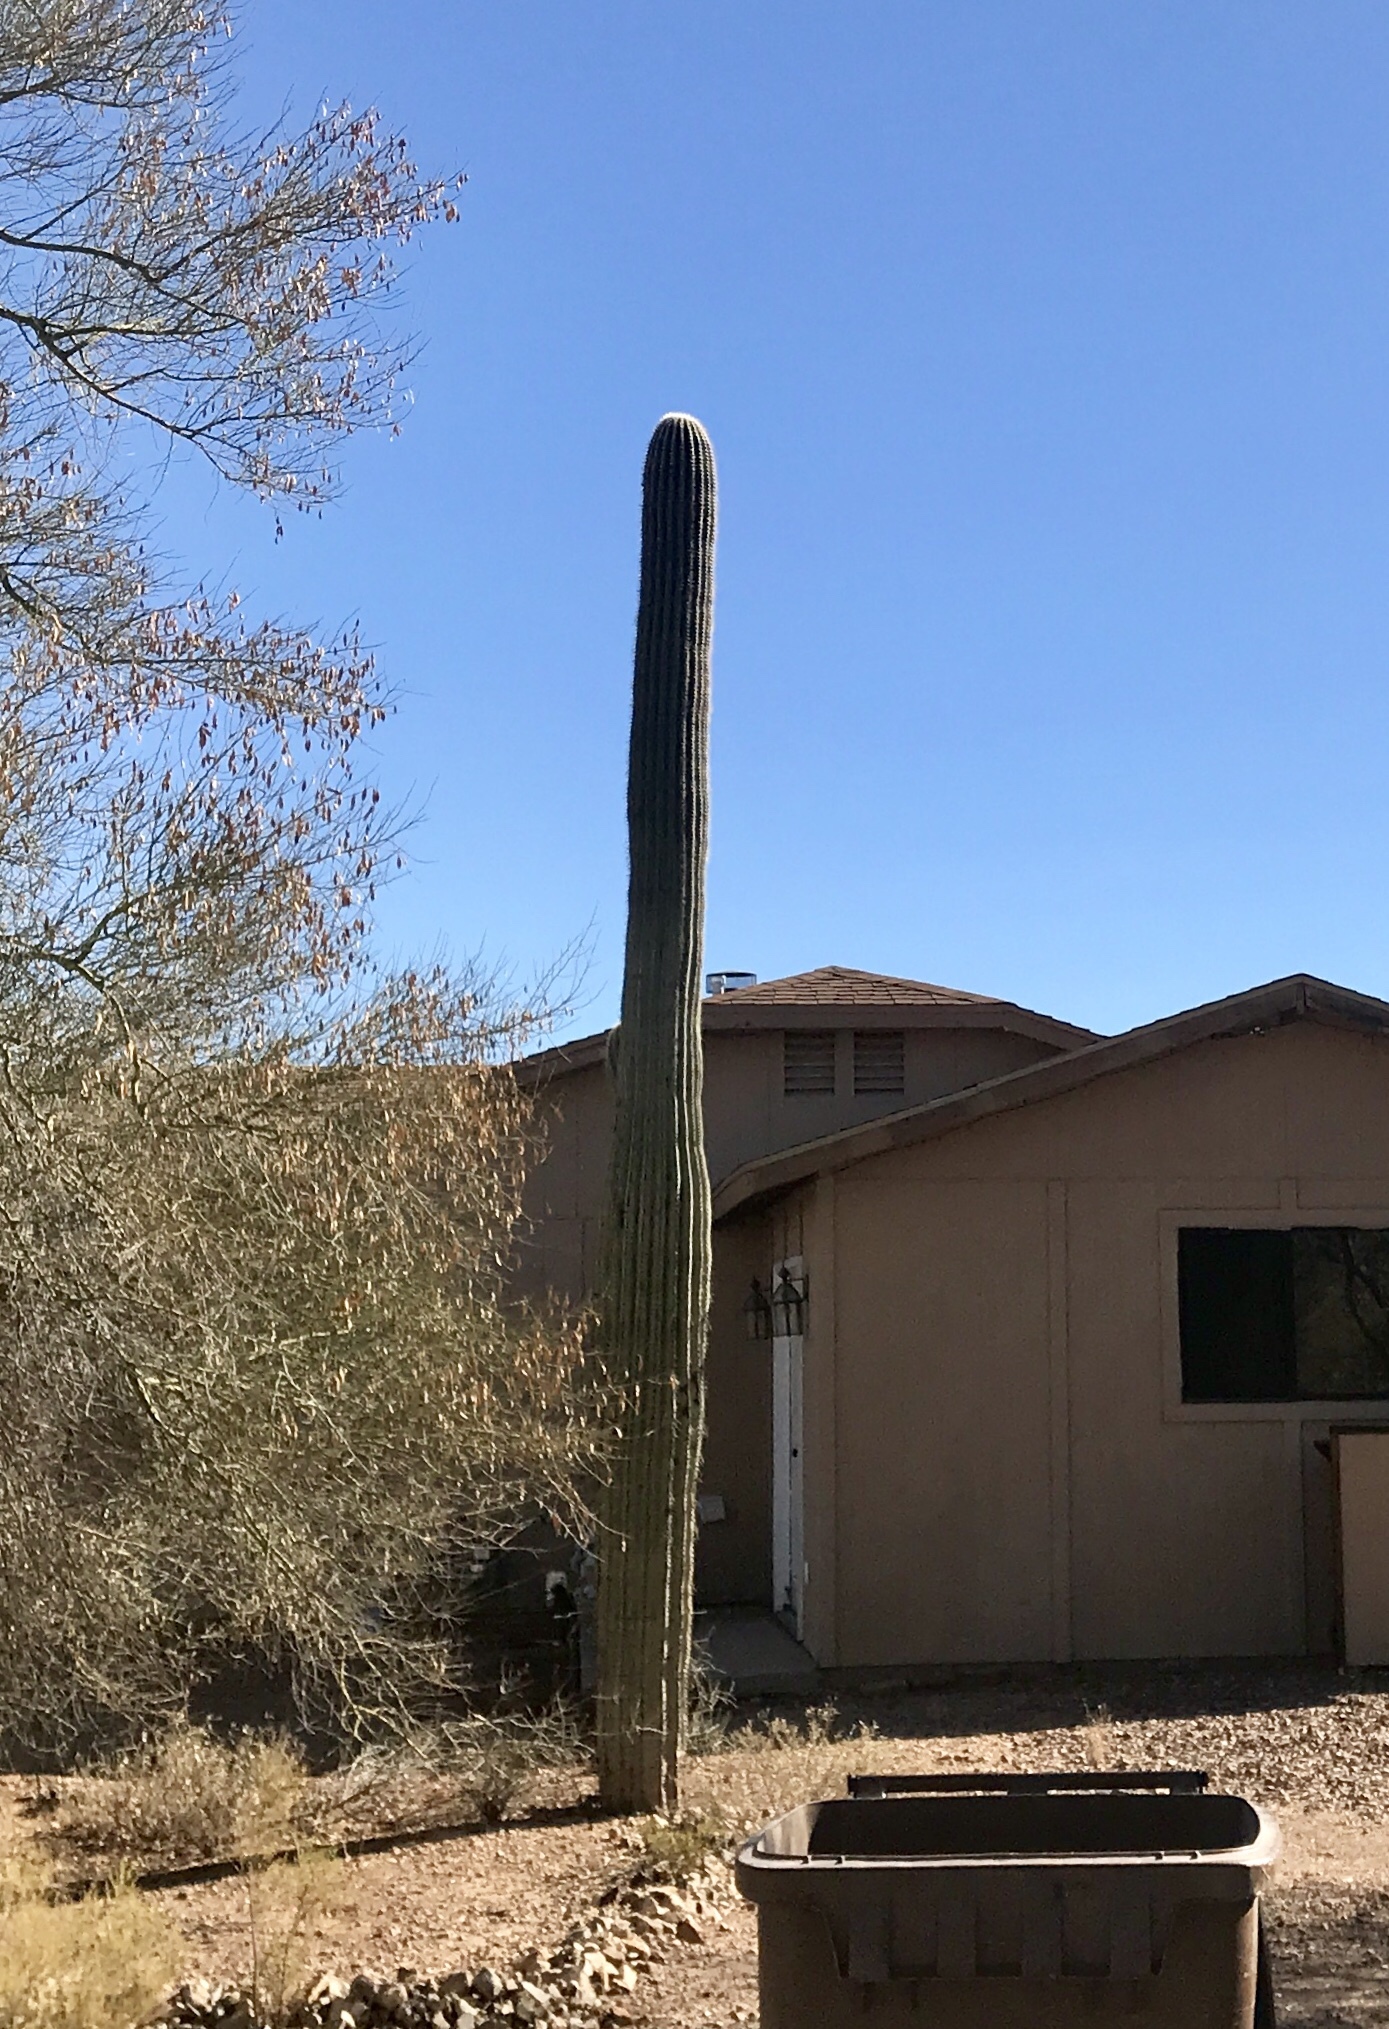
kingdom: Plantae
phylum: Tracheophyta
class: Magnoliopsida
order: Caryophyllales
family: Cactaceae
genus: Carnegiea
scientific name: Carnegiea gigantea
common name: Saguaro
